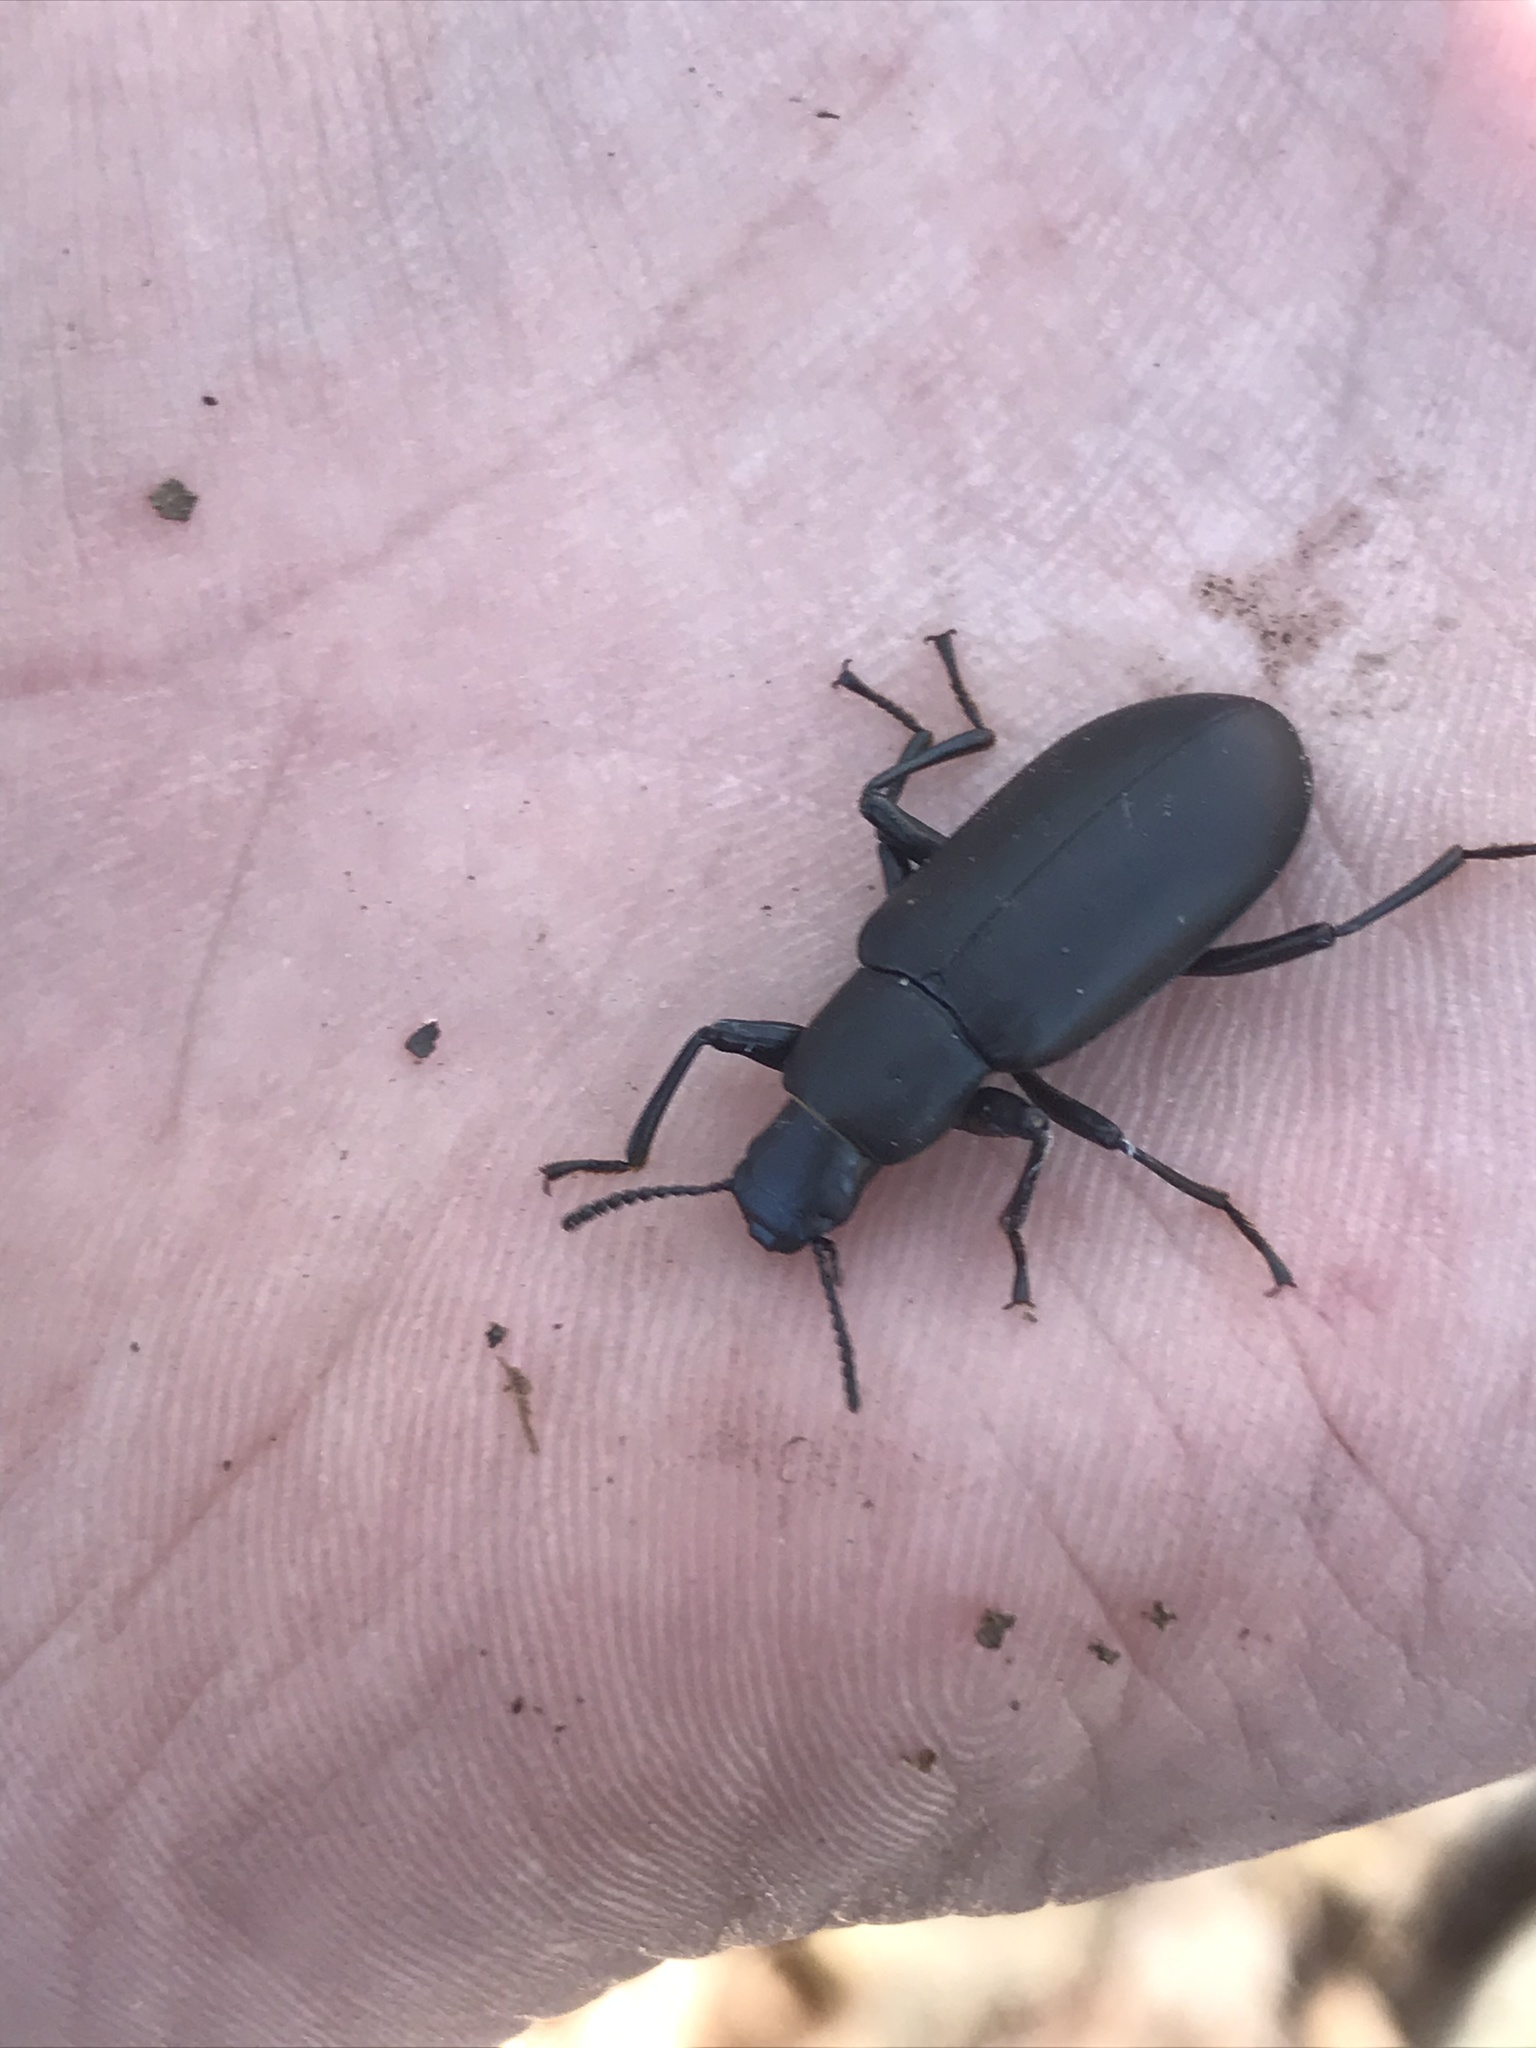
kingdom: Animalia
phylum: Arthropoda
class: Insecta
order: Coleoptera
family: Tenebrionidae
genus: Alobates
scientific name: Alobates
